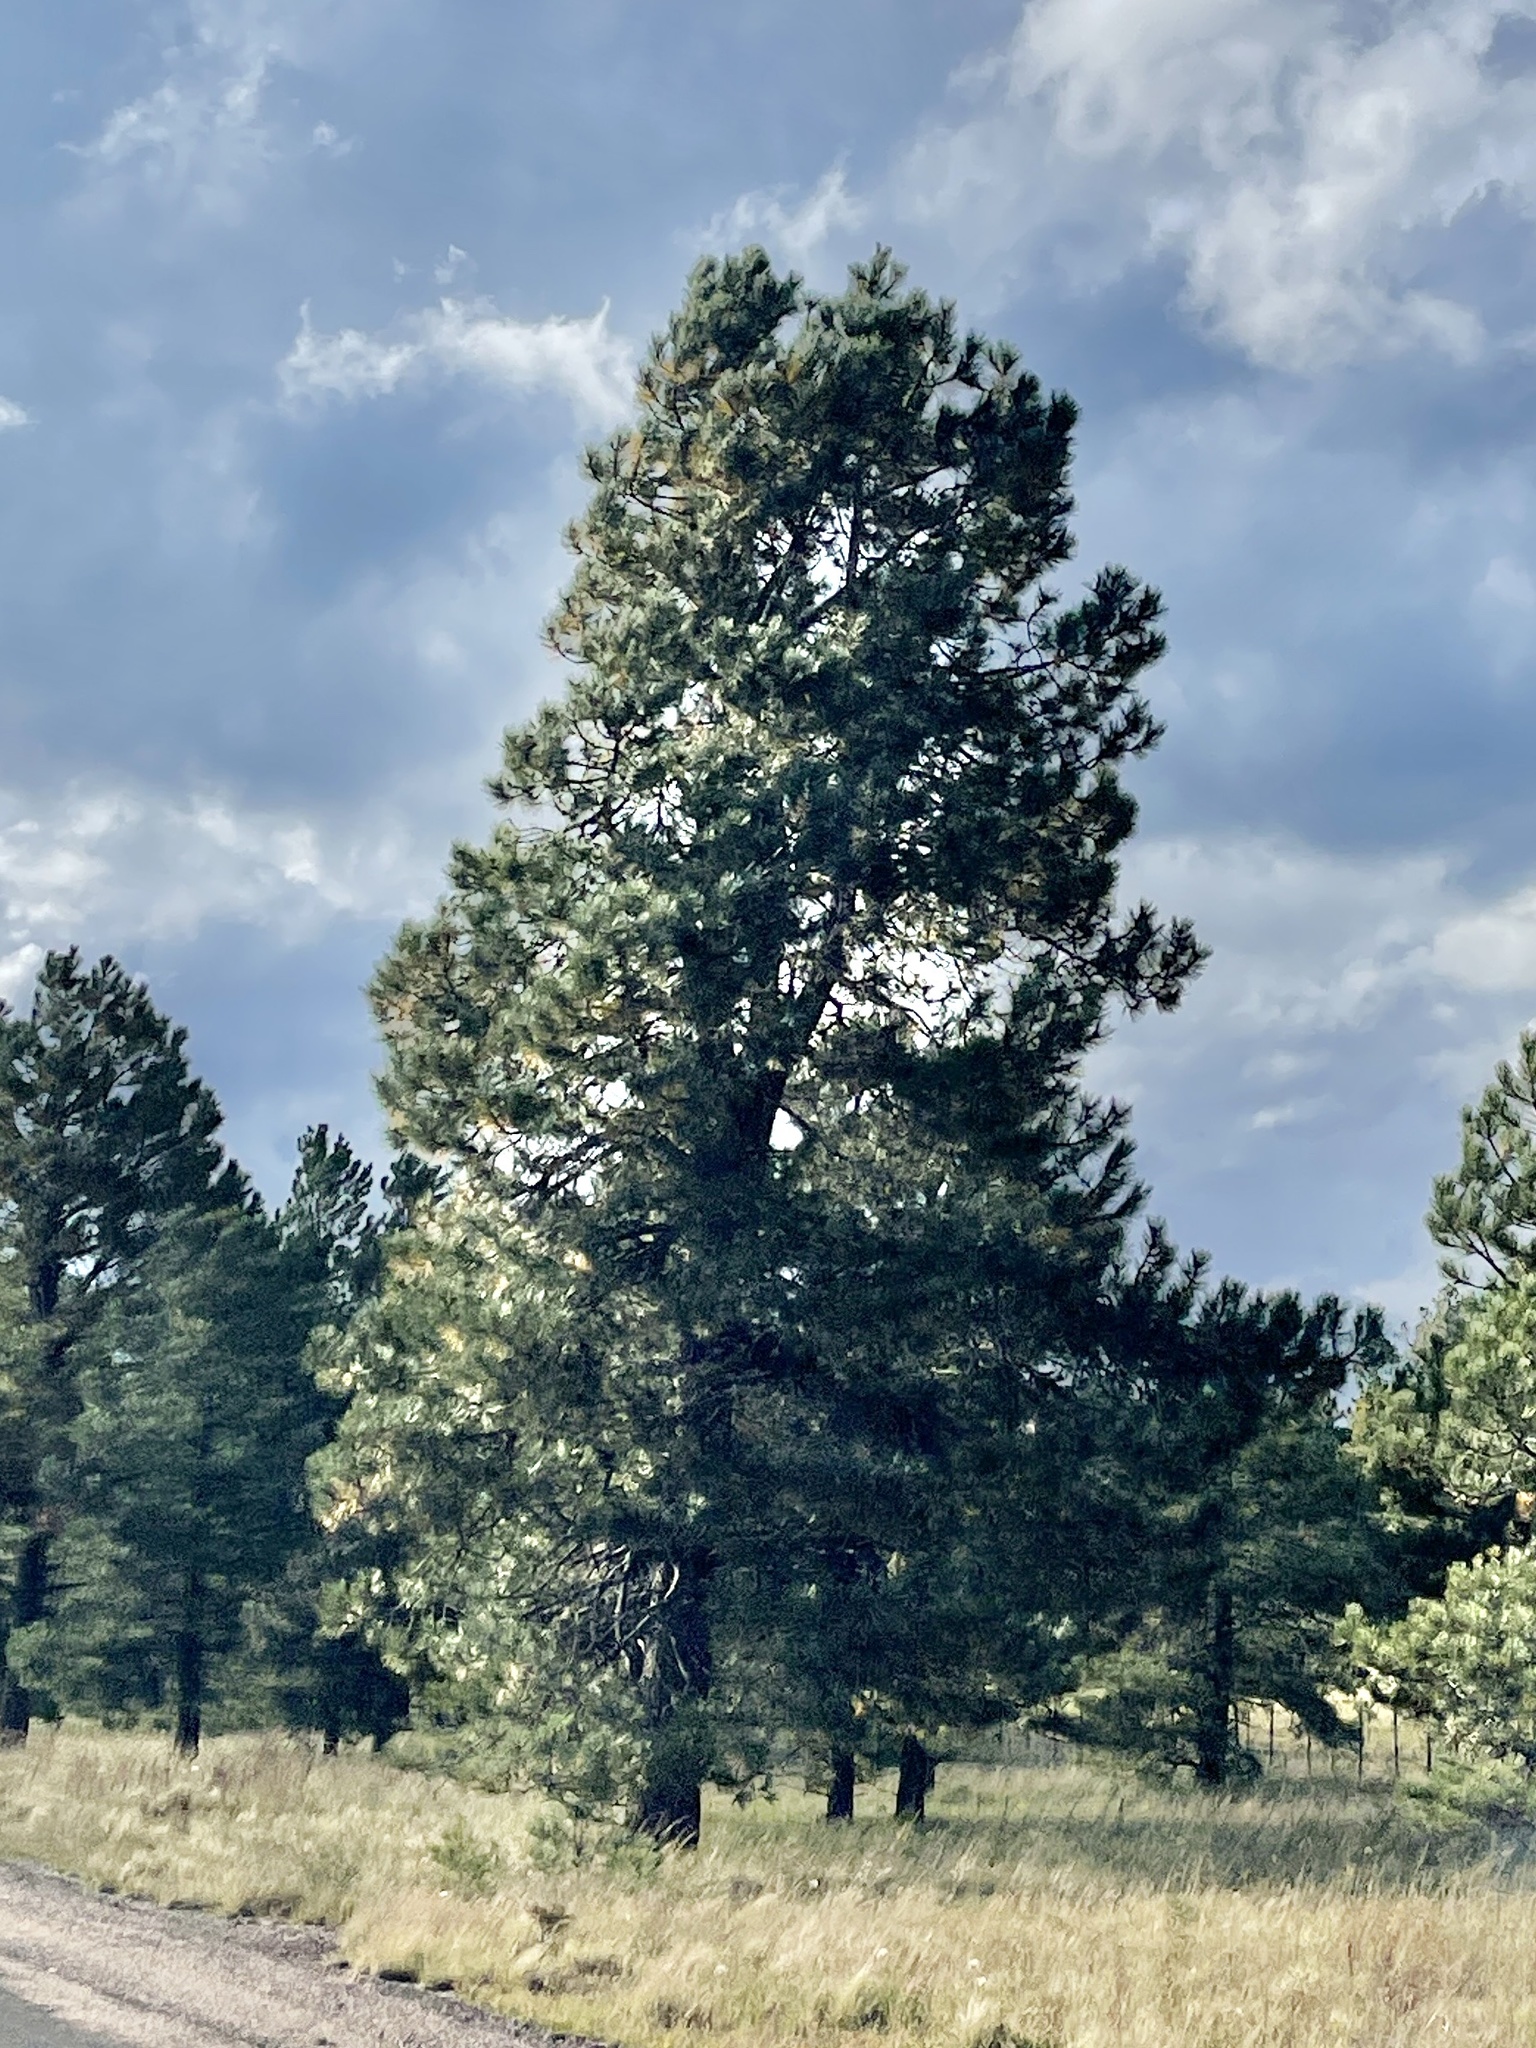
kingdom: Plantae
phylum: Tracheophyta
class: Pinopsida
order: Pinales
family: Pinaceae
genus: Pinus
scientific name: Pinus ponderosa
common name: Western yellow-pine
